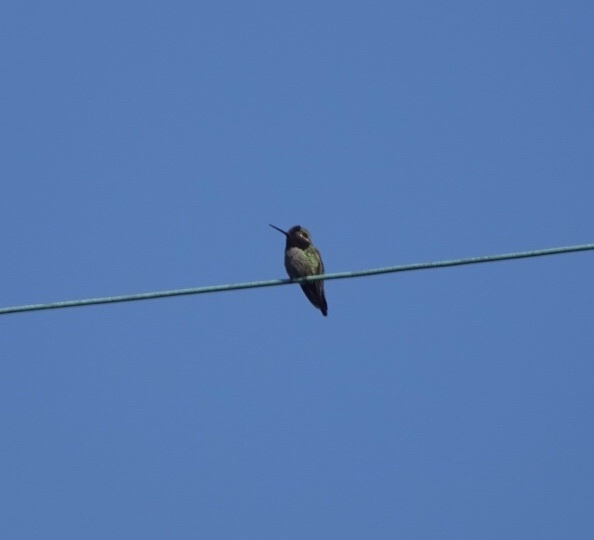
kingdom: Animalia
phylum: Chordata
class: Aves
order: Apodiformes
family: Trochilidae
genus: Calypte
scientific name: Calypte anna
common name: Anna's hummingbird
